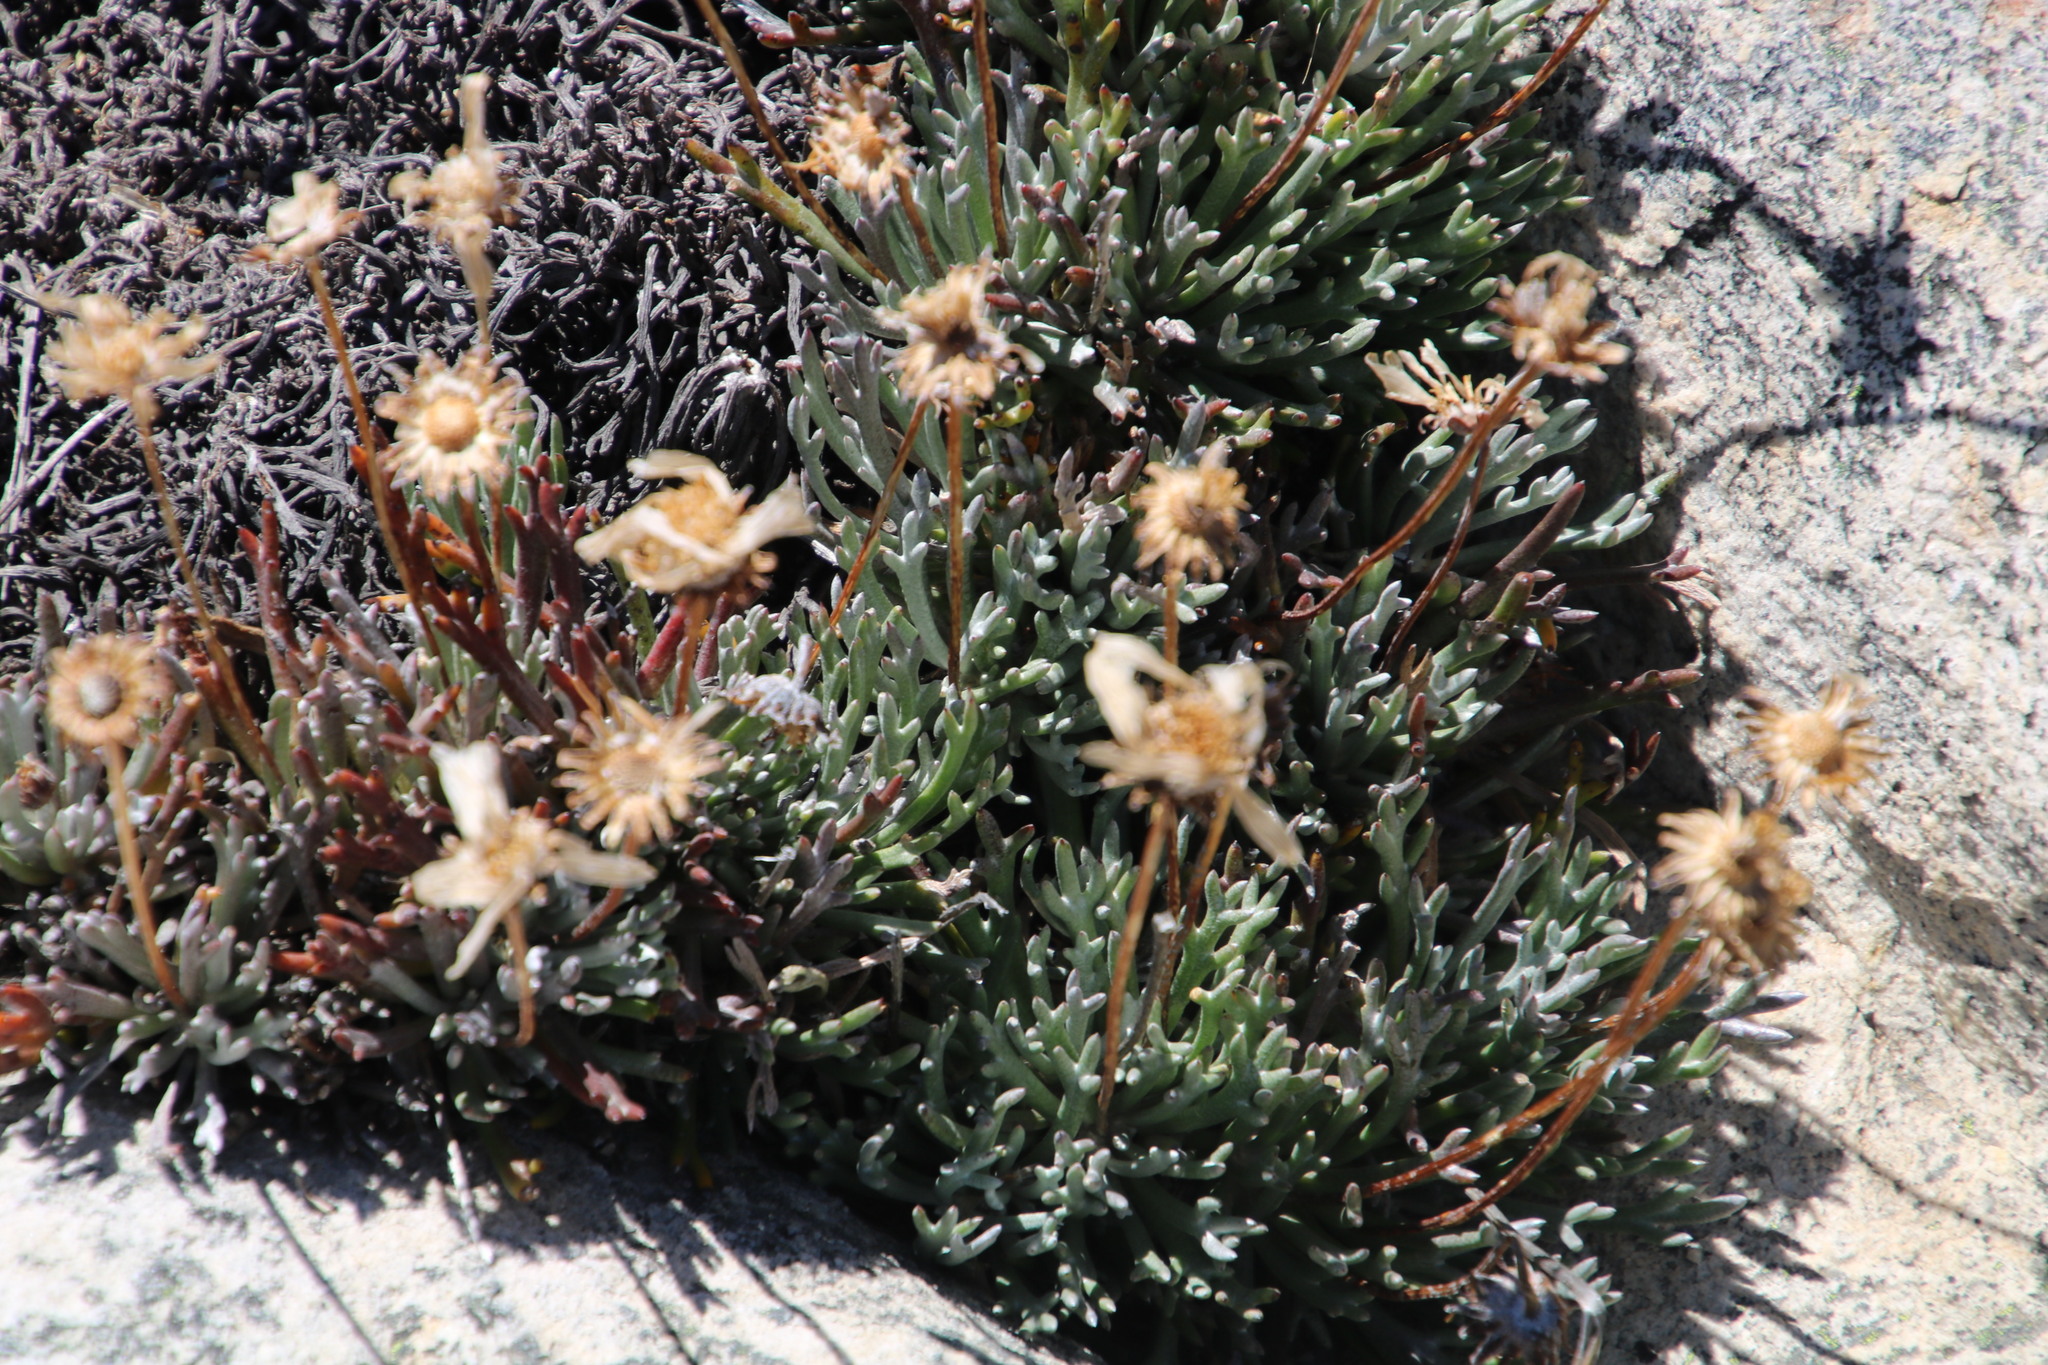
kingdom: Plantae
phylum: Tracheophyta
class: Magnoliopsida
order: Asterales
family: Asteraceae
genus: Euryops
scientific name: Euryops othonnoides
